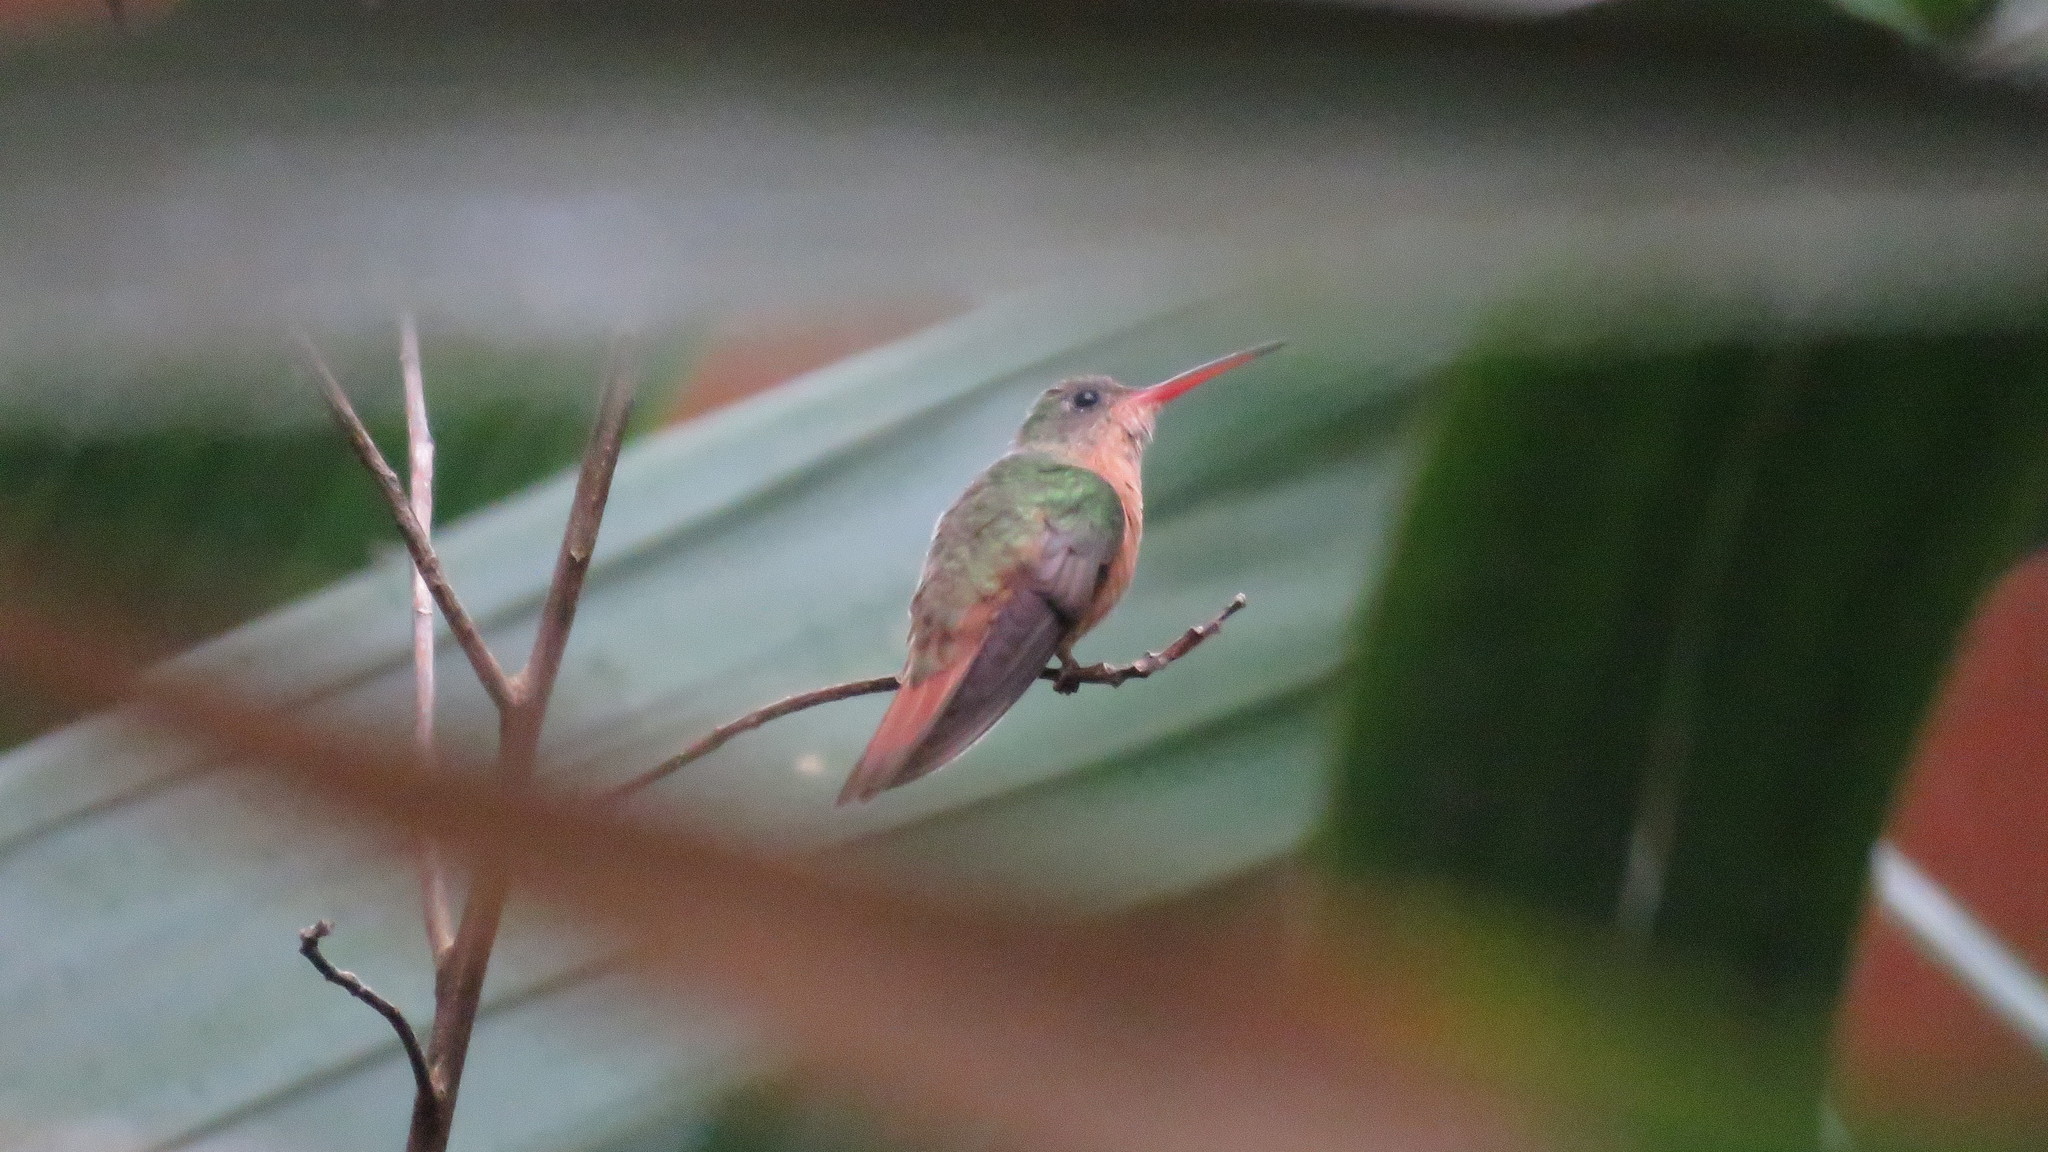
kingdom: Animalia
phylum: Chordata
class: Aves
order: Apodiformes
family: Trochilidae
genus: Amazilia
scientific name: Amazilia rutila
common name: Cinnamon hummingbird
